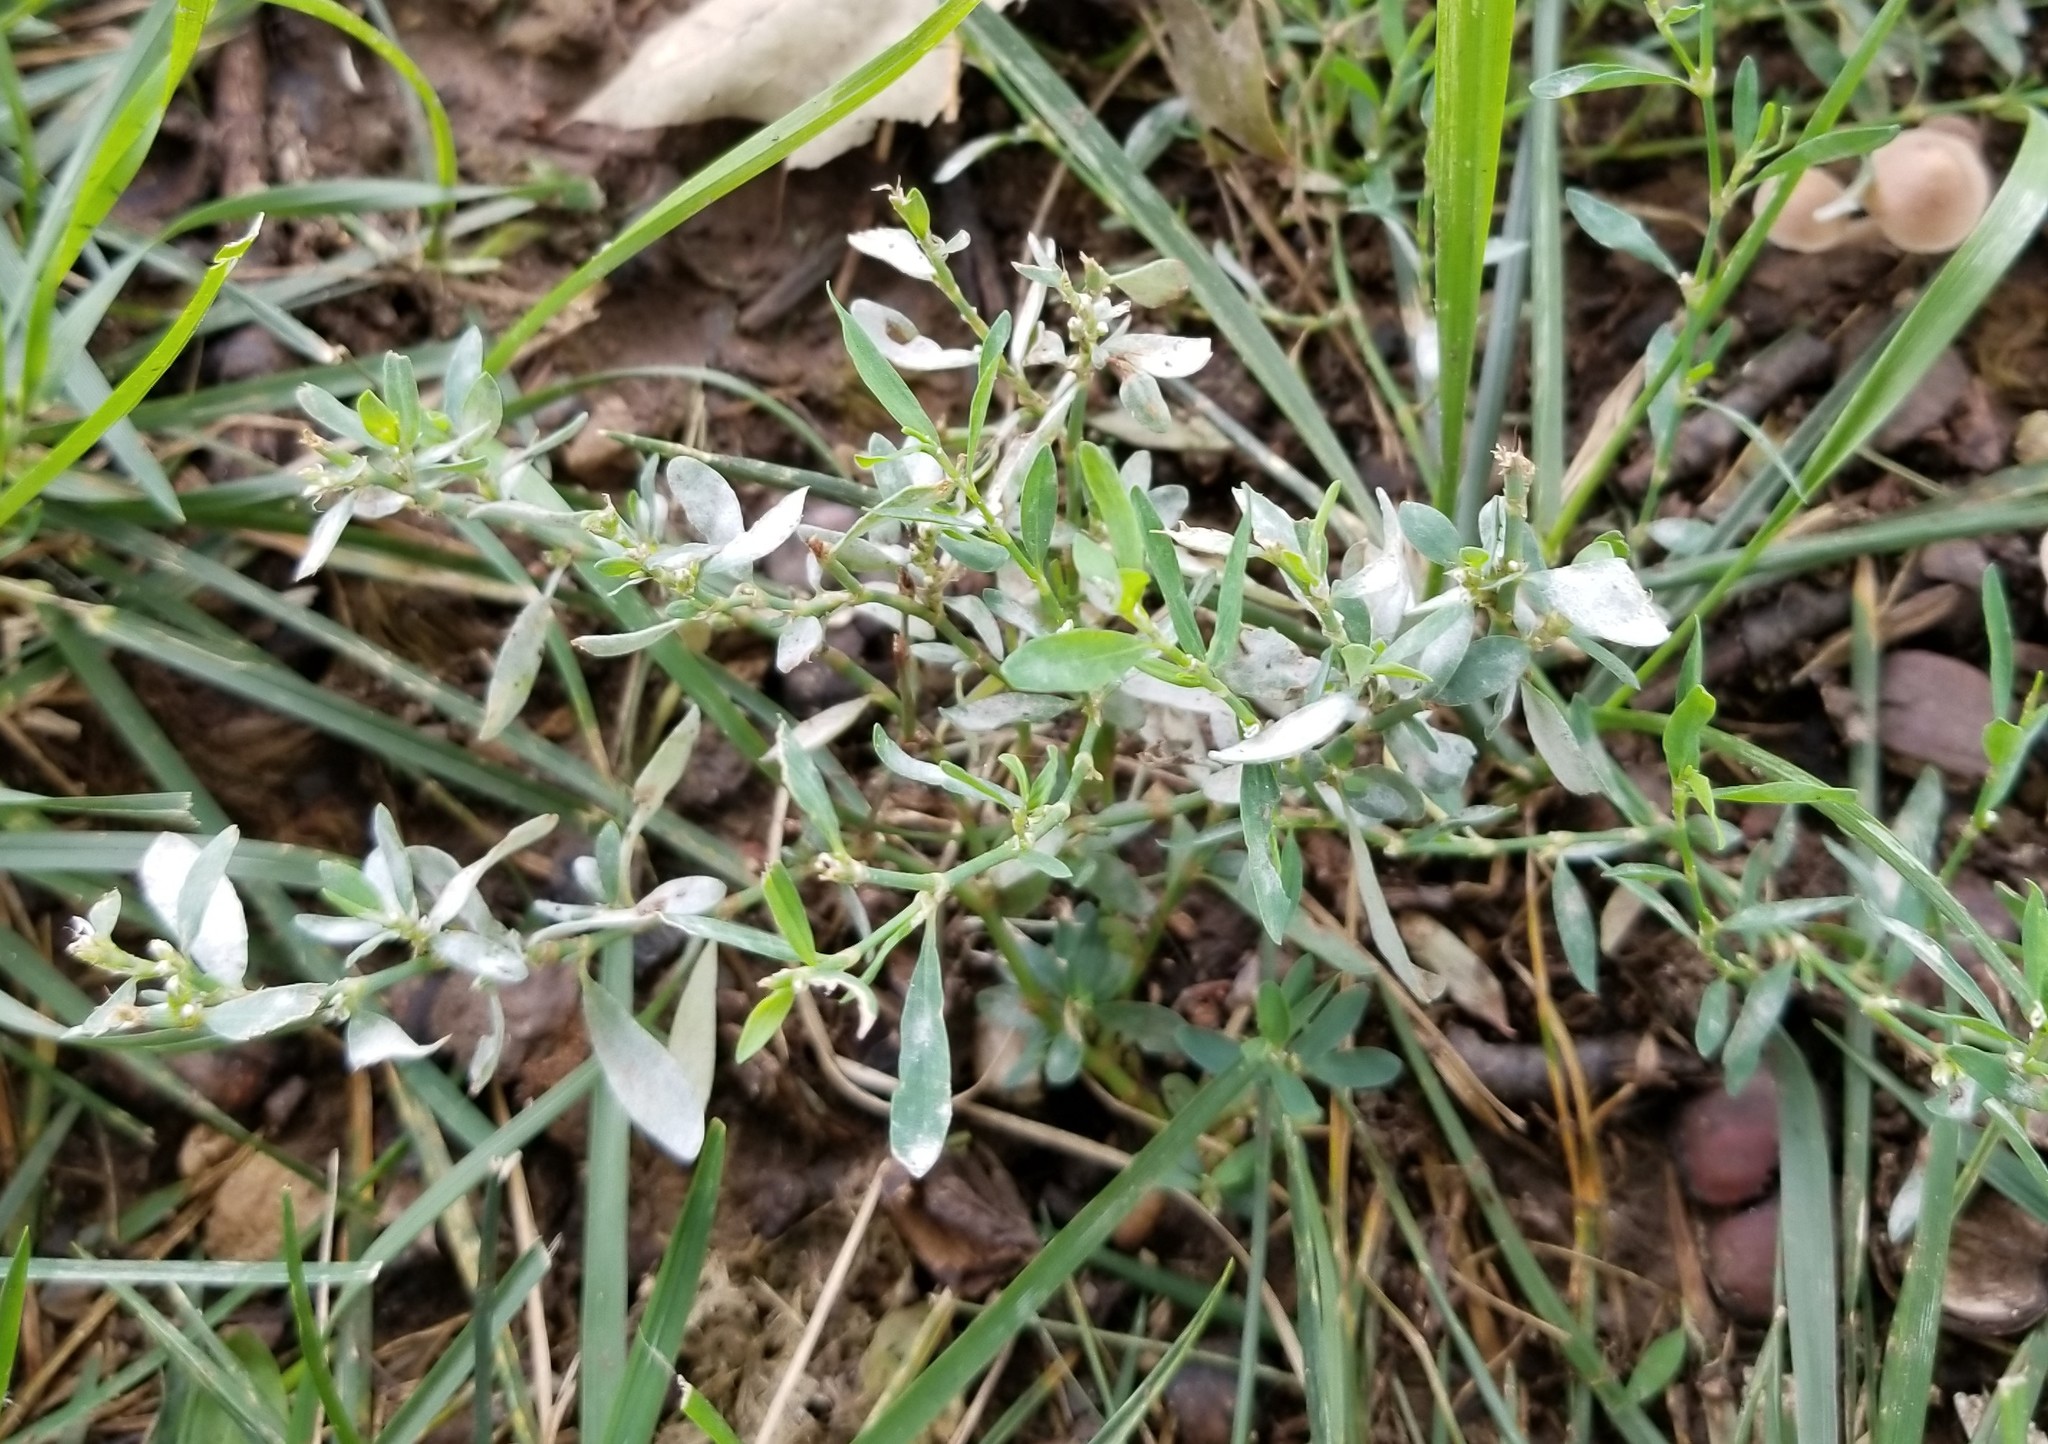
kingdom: Fungi
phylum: Ascomycota
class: Leotiomycetes
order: Helotiales
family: Erysiphaceae
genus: Erysiphe
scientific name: Erysiphe polygoni
